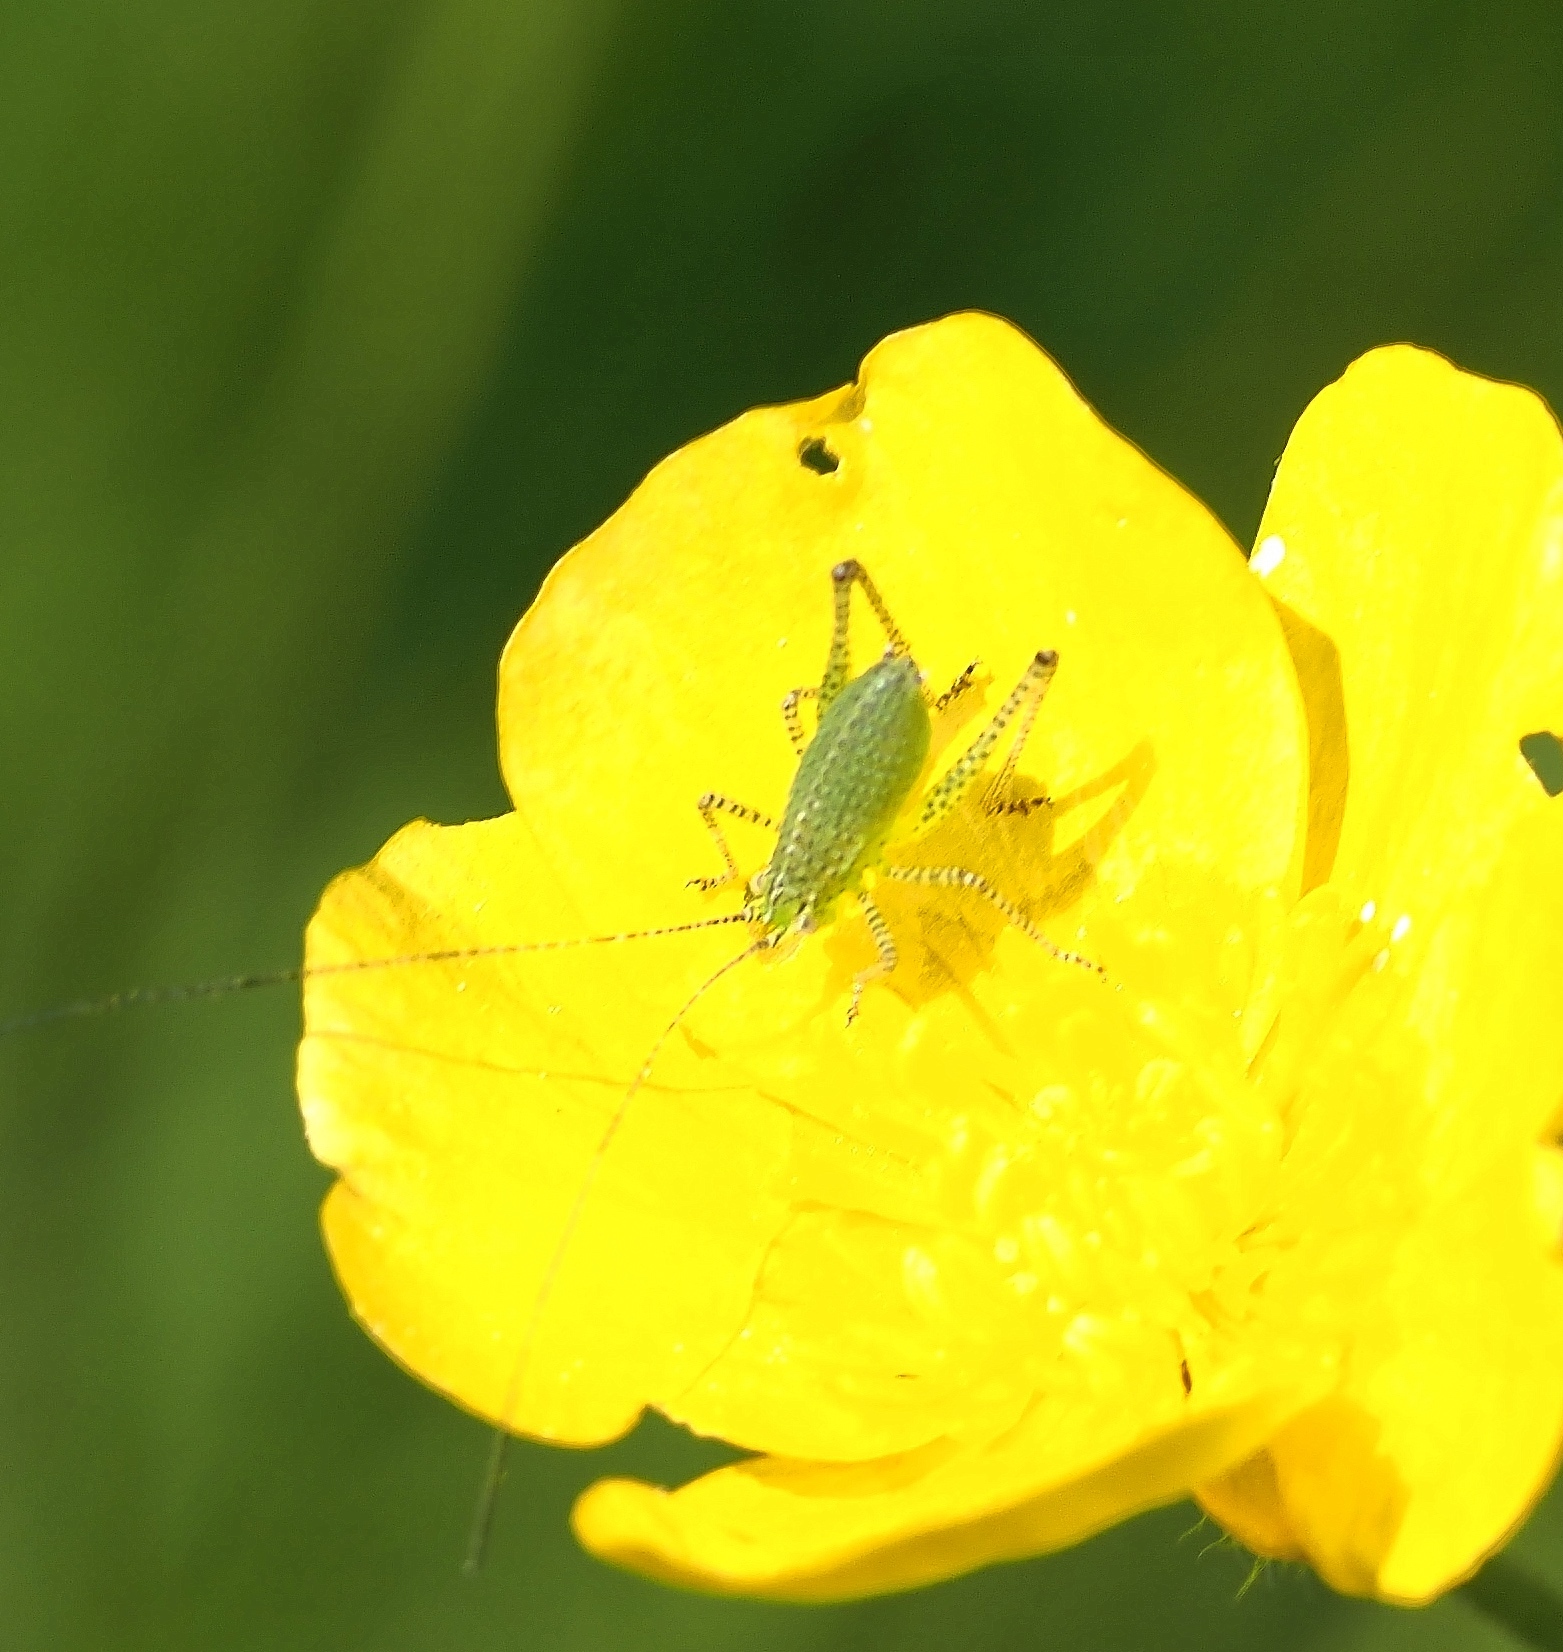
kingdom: Animalia
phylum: Arthropoda
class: Insecta
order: Orthoptera
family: Tettigoniidae
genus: Leptophyes
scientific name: Leptophyes punctatissima
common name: Speckled bush-cricket
